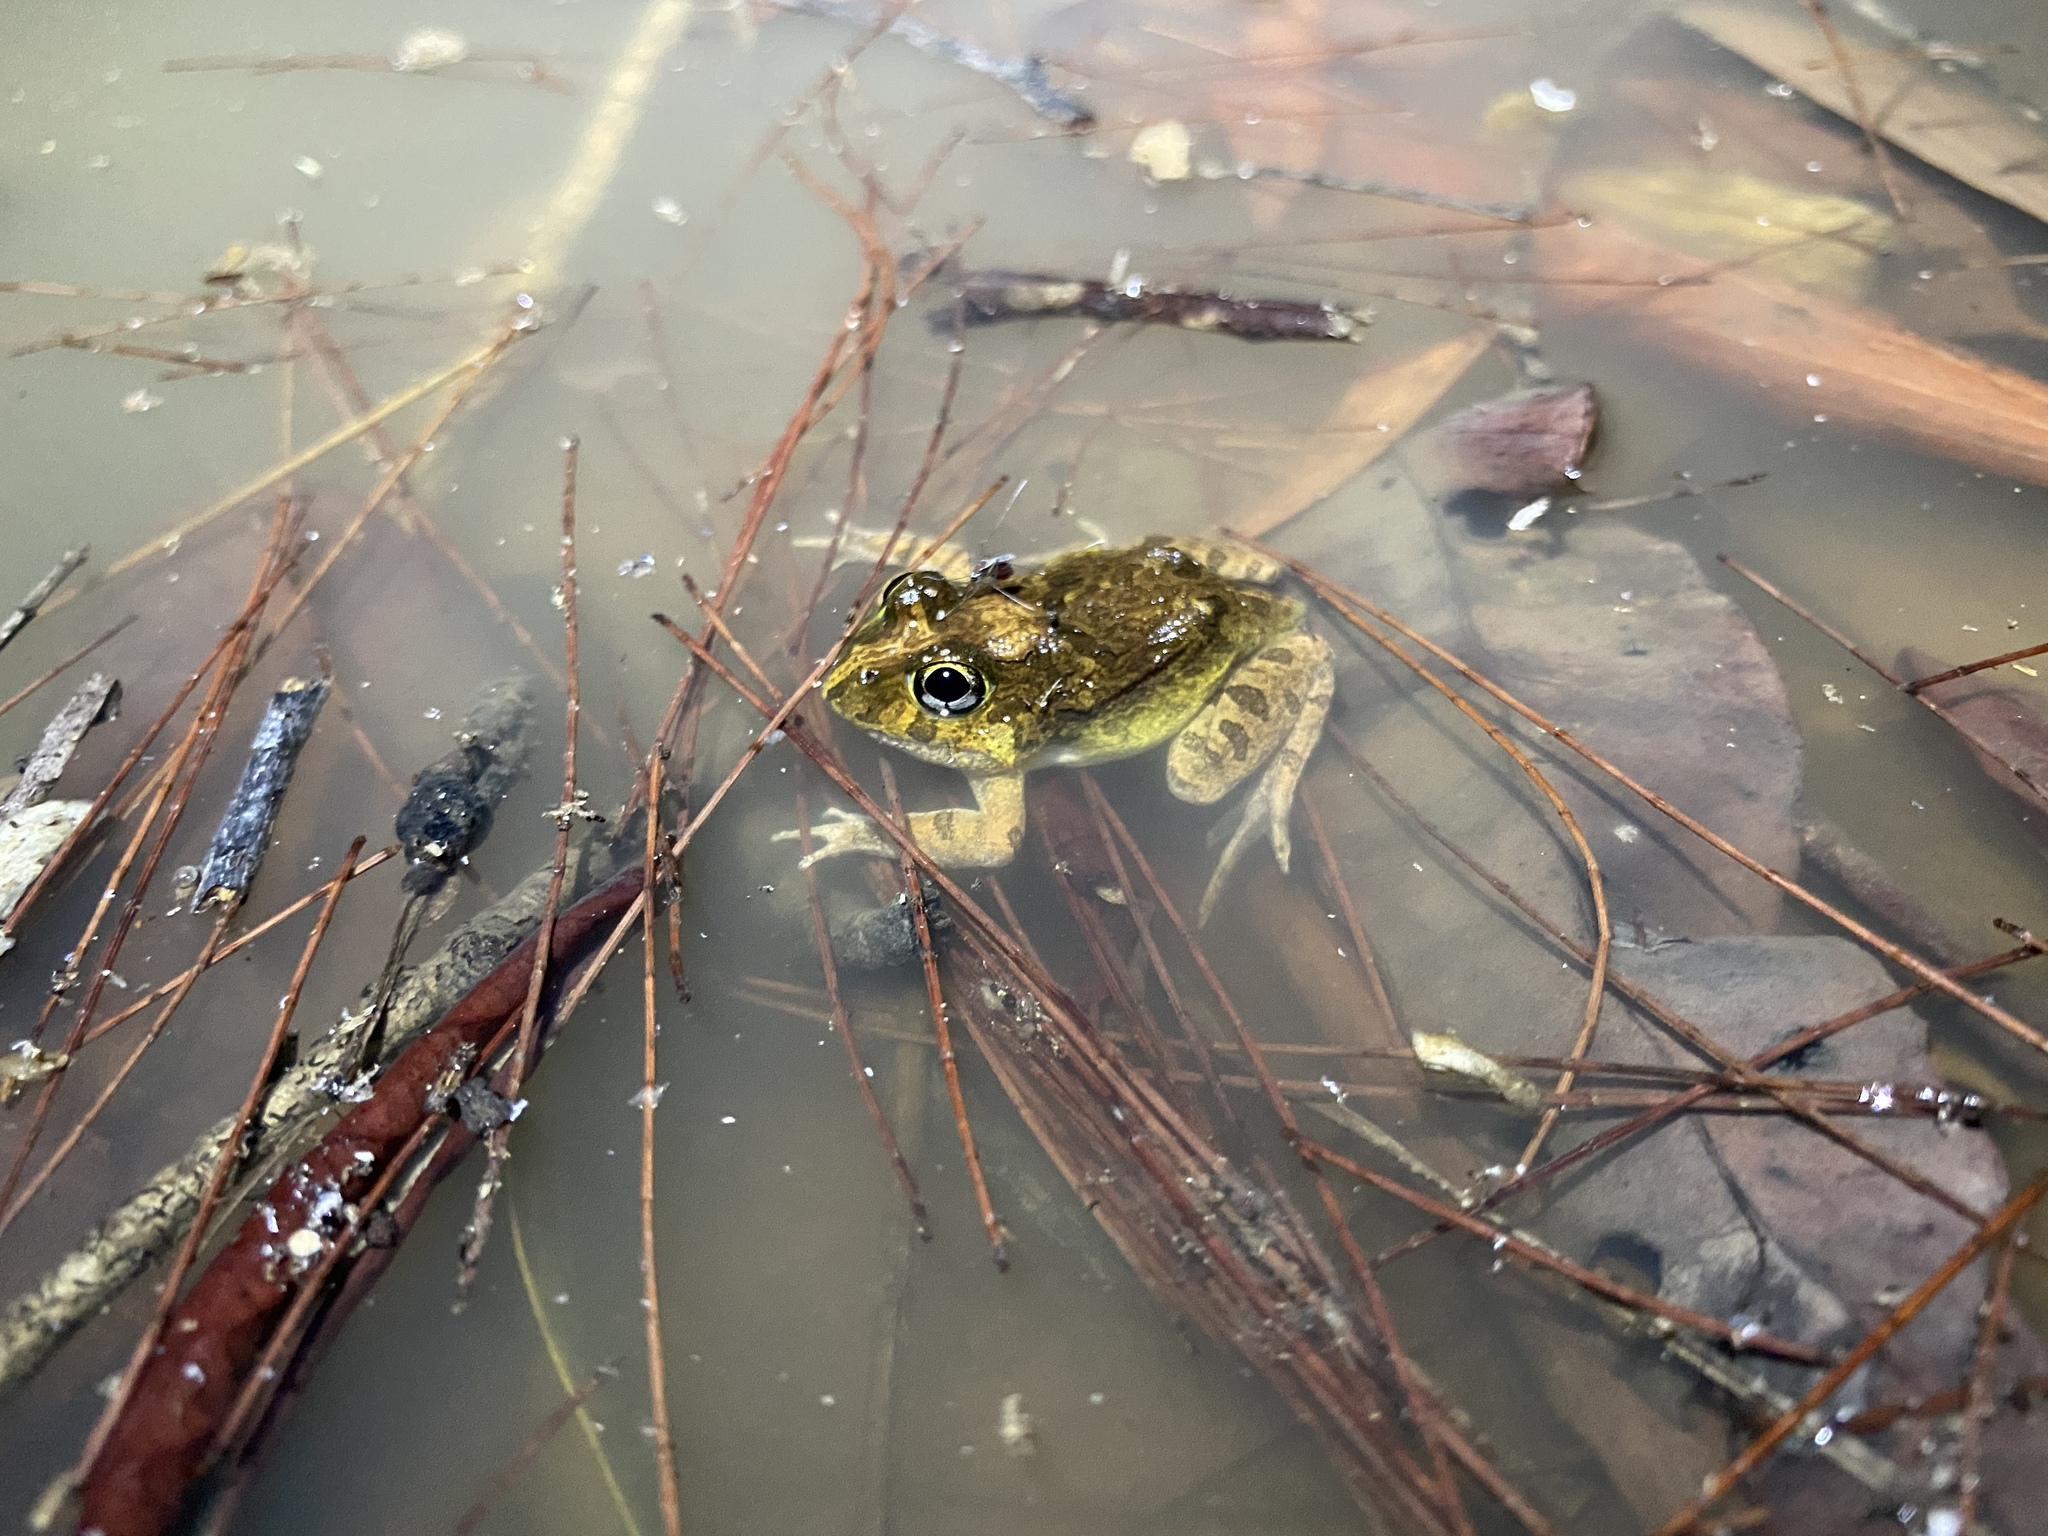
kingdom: Animalia
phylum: Chordata
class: Amphibia
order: Anura
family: Limnodynastidae
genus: Platyplectrum
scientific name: Platyplectrum ornatum
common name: Ornate burrowing frog
